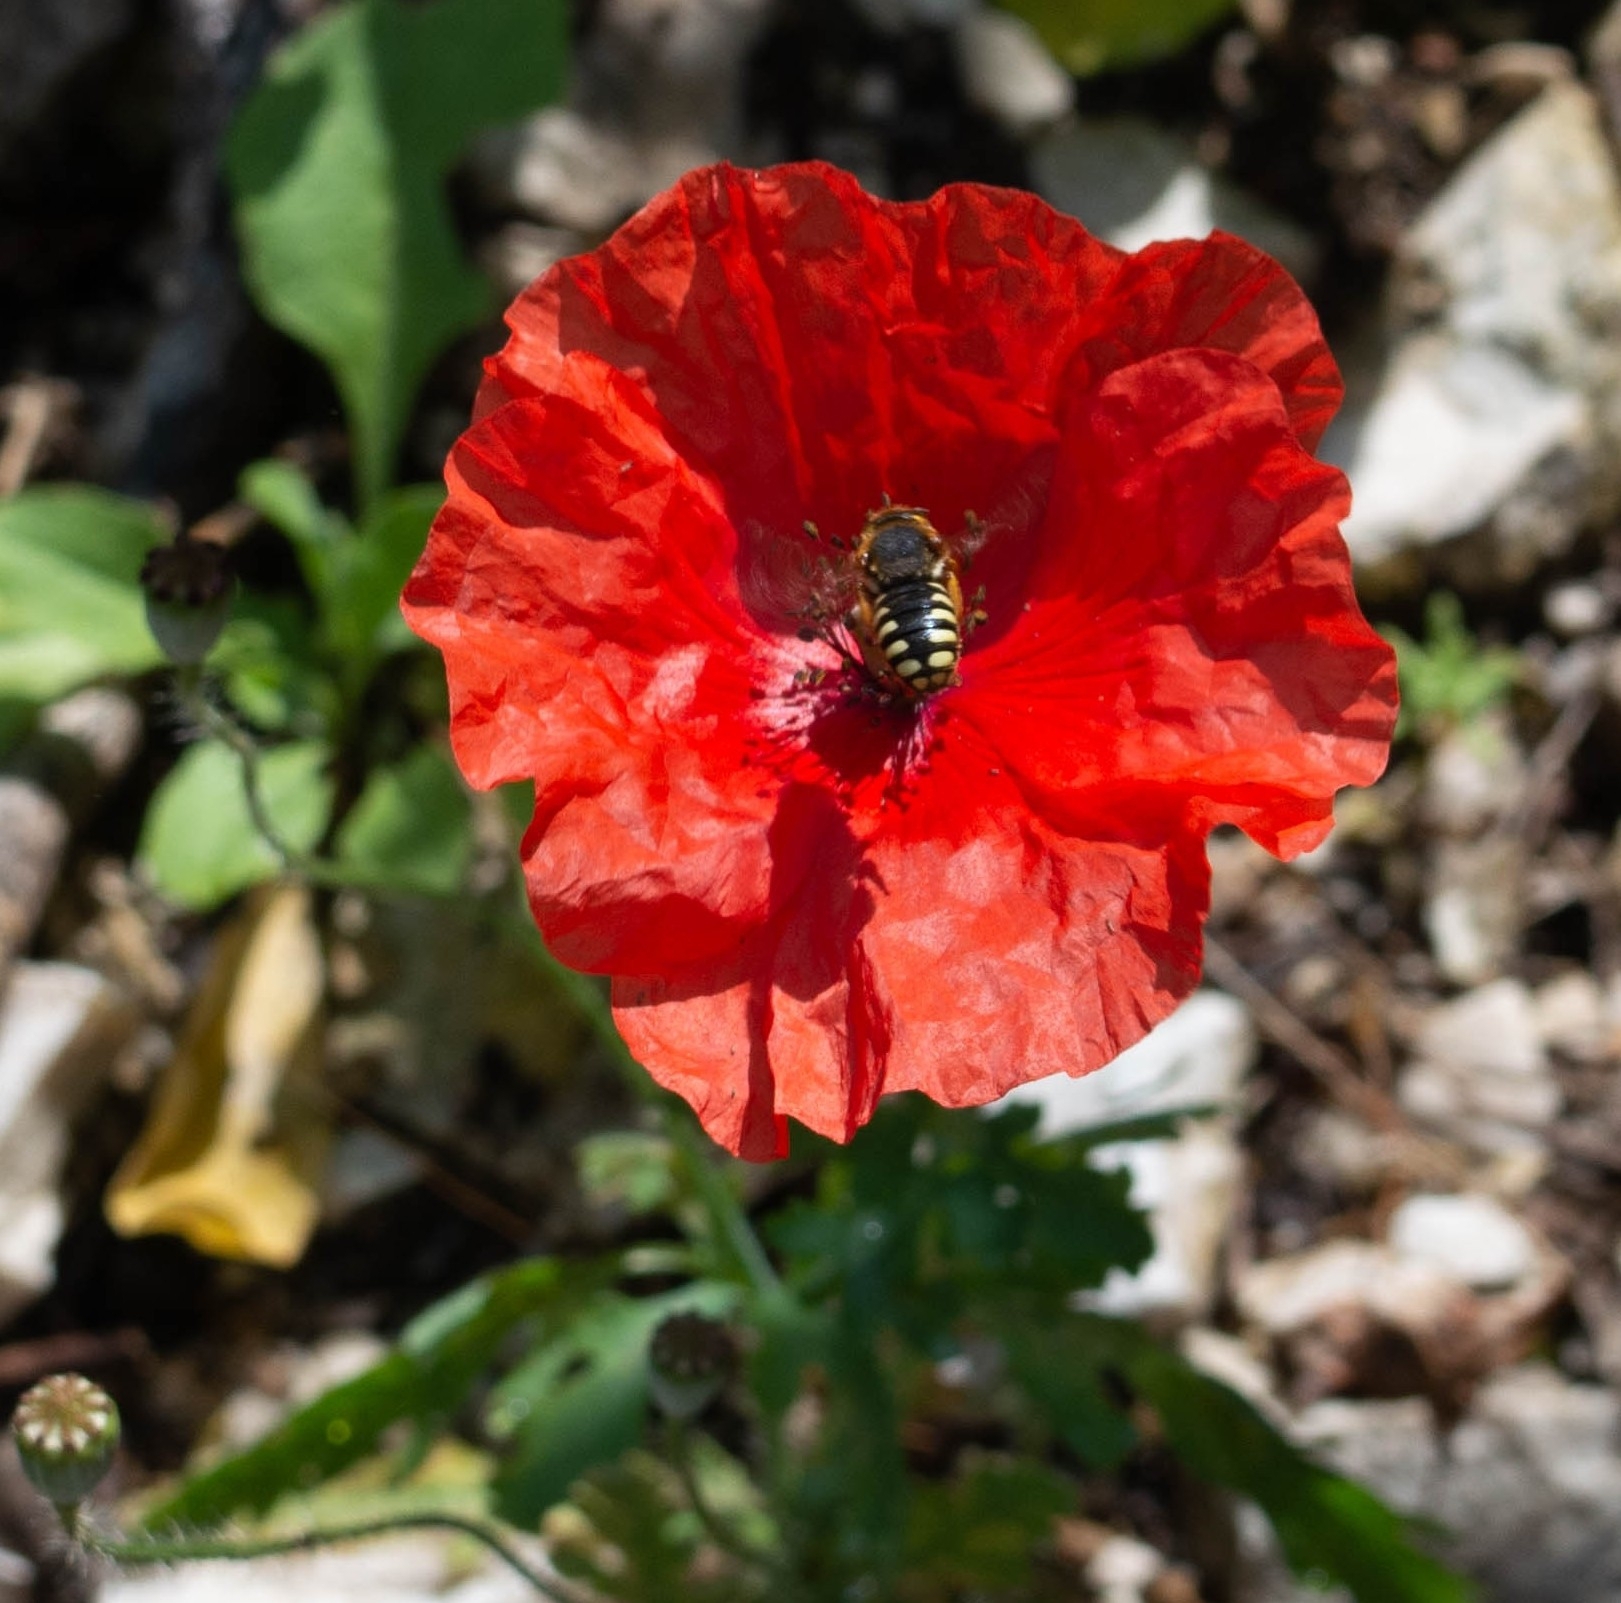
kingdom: Animalia
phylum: Arthropoda
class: Insecta
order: Hymenoptera
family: Megachilidae
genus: Rhodanthidium
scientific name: Rhodanthidium septemdentatum
